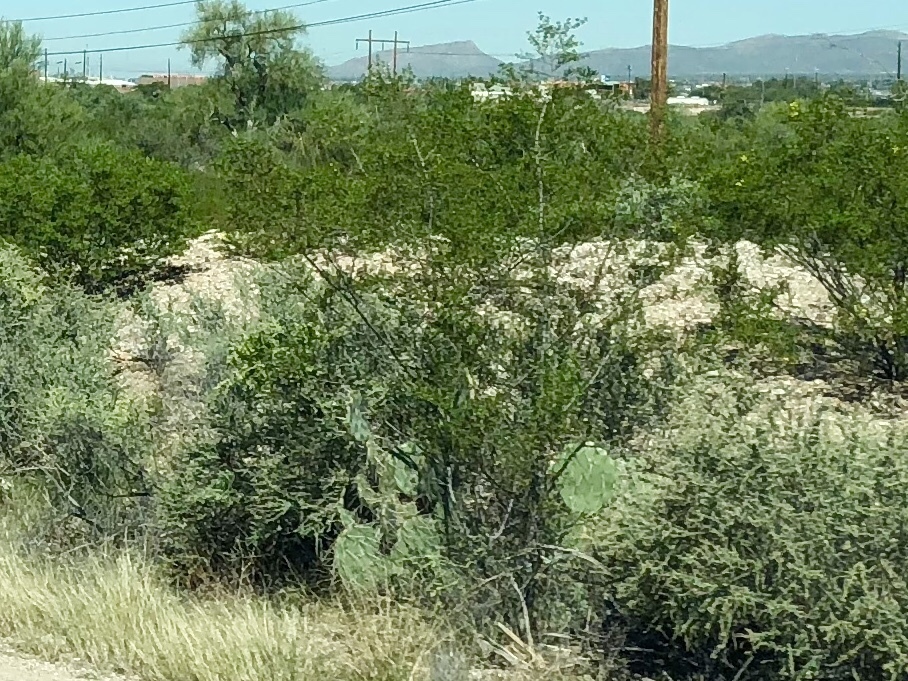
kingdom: Plantae
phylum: Tracheophyta
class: Magnoliopsida
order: Zygophyllales
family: Zygophyllaceae
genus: Larrea
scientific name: Larrea tridentata
